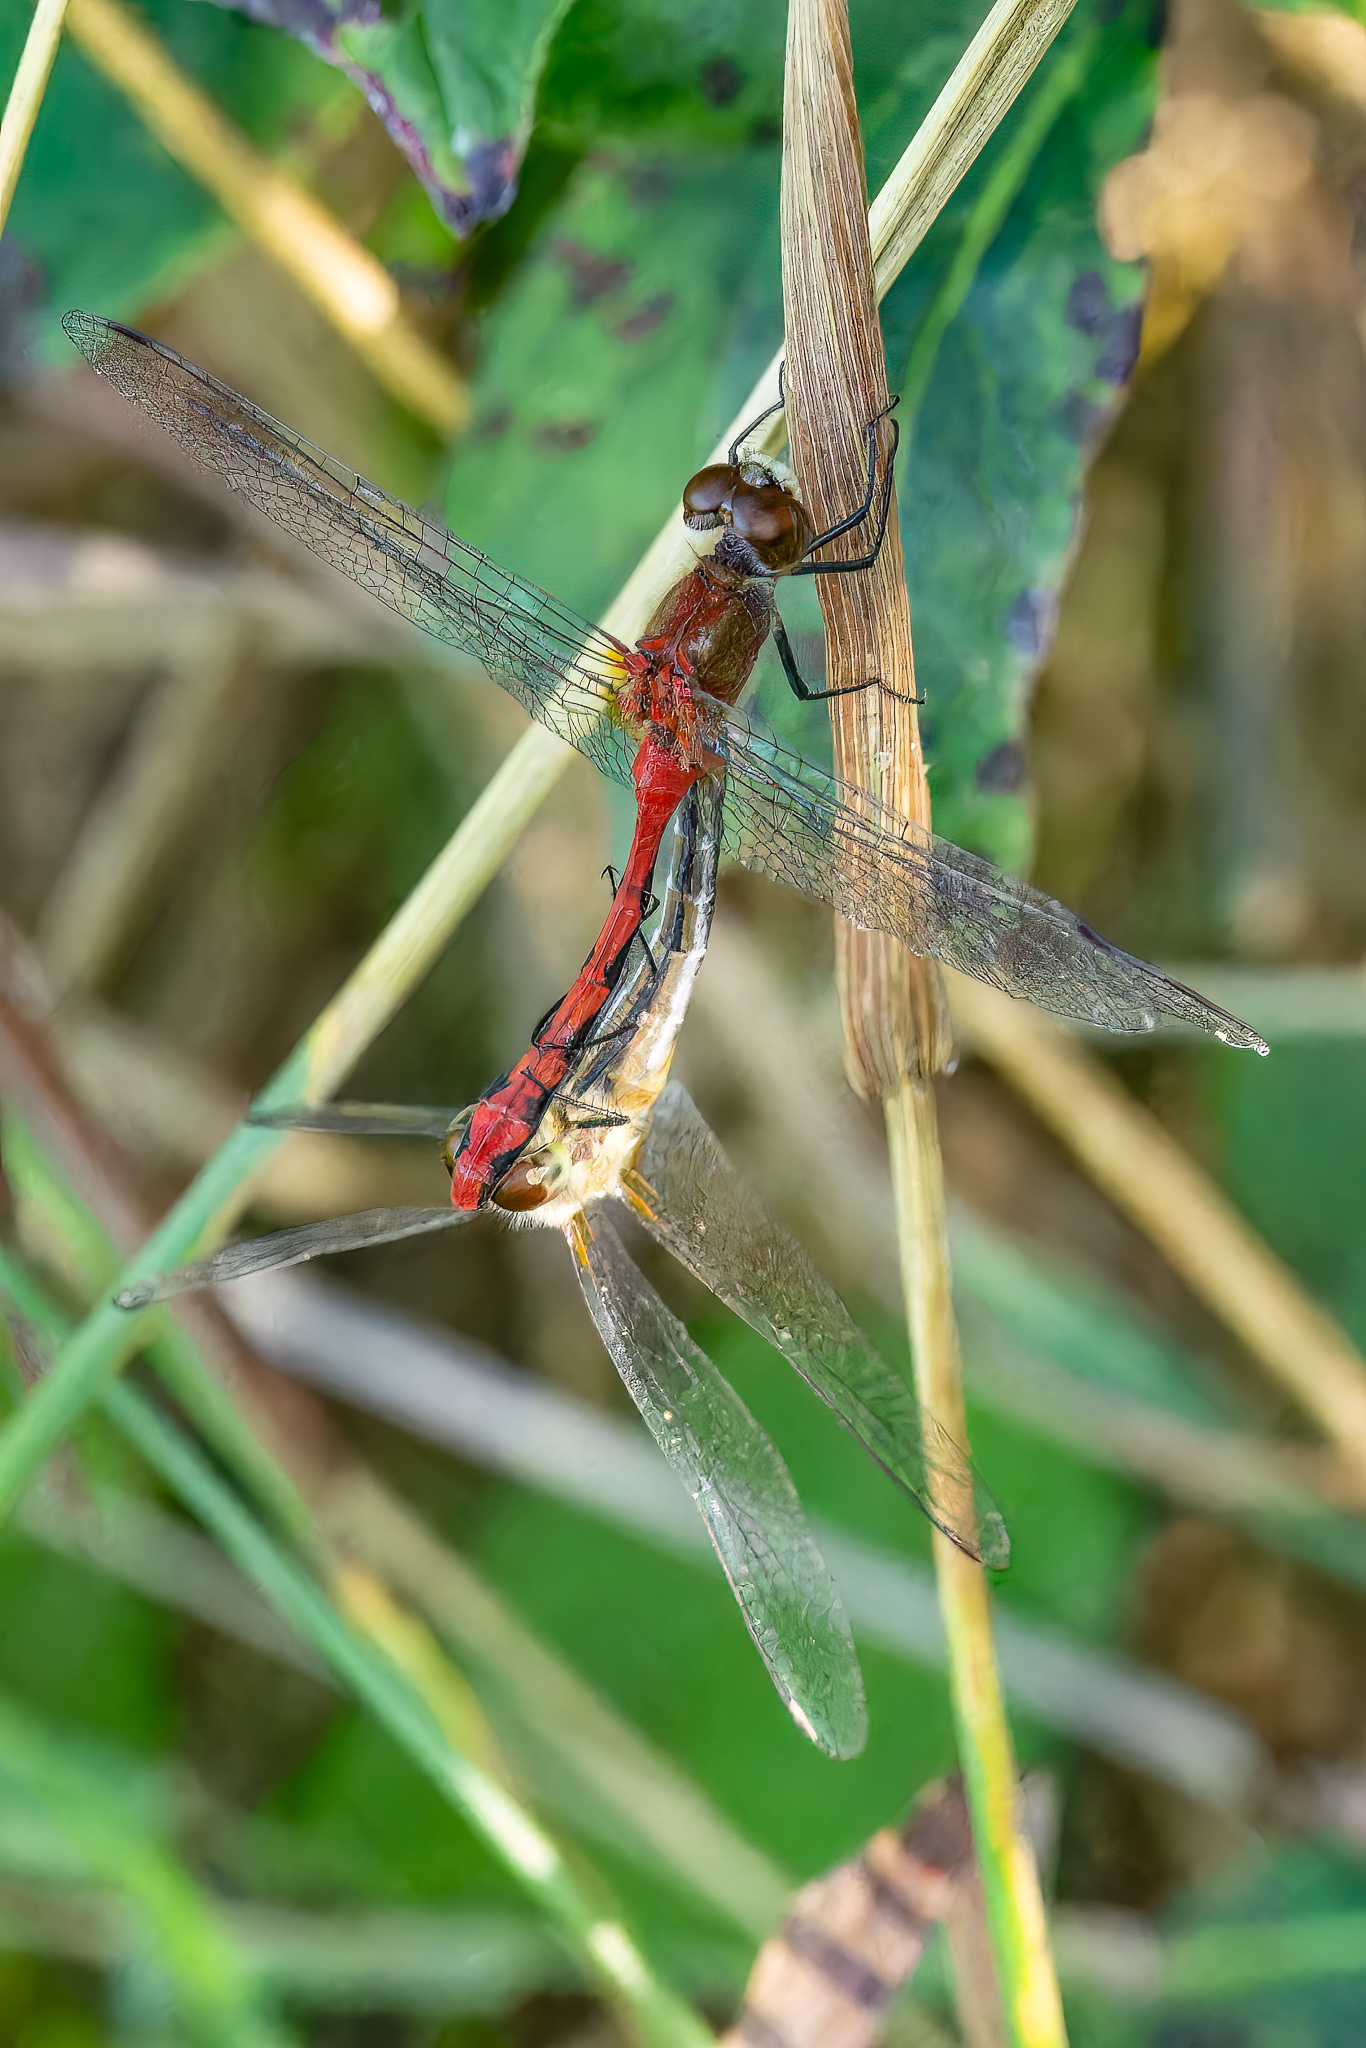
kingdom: Animalia
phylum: Arthropoda
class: Insecta
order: Odonata
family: Libellulidae
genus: Sympetrum
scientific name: Sympetrum obtrusum
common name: White-faced meadowhawk
